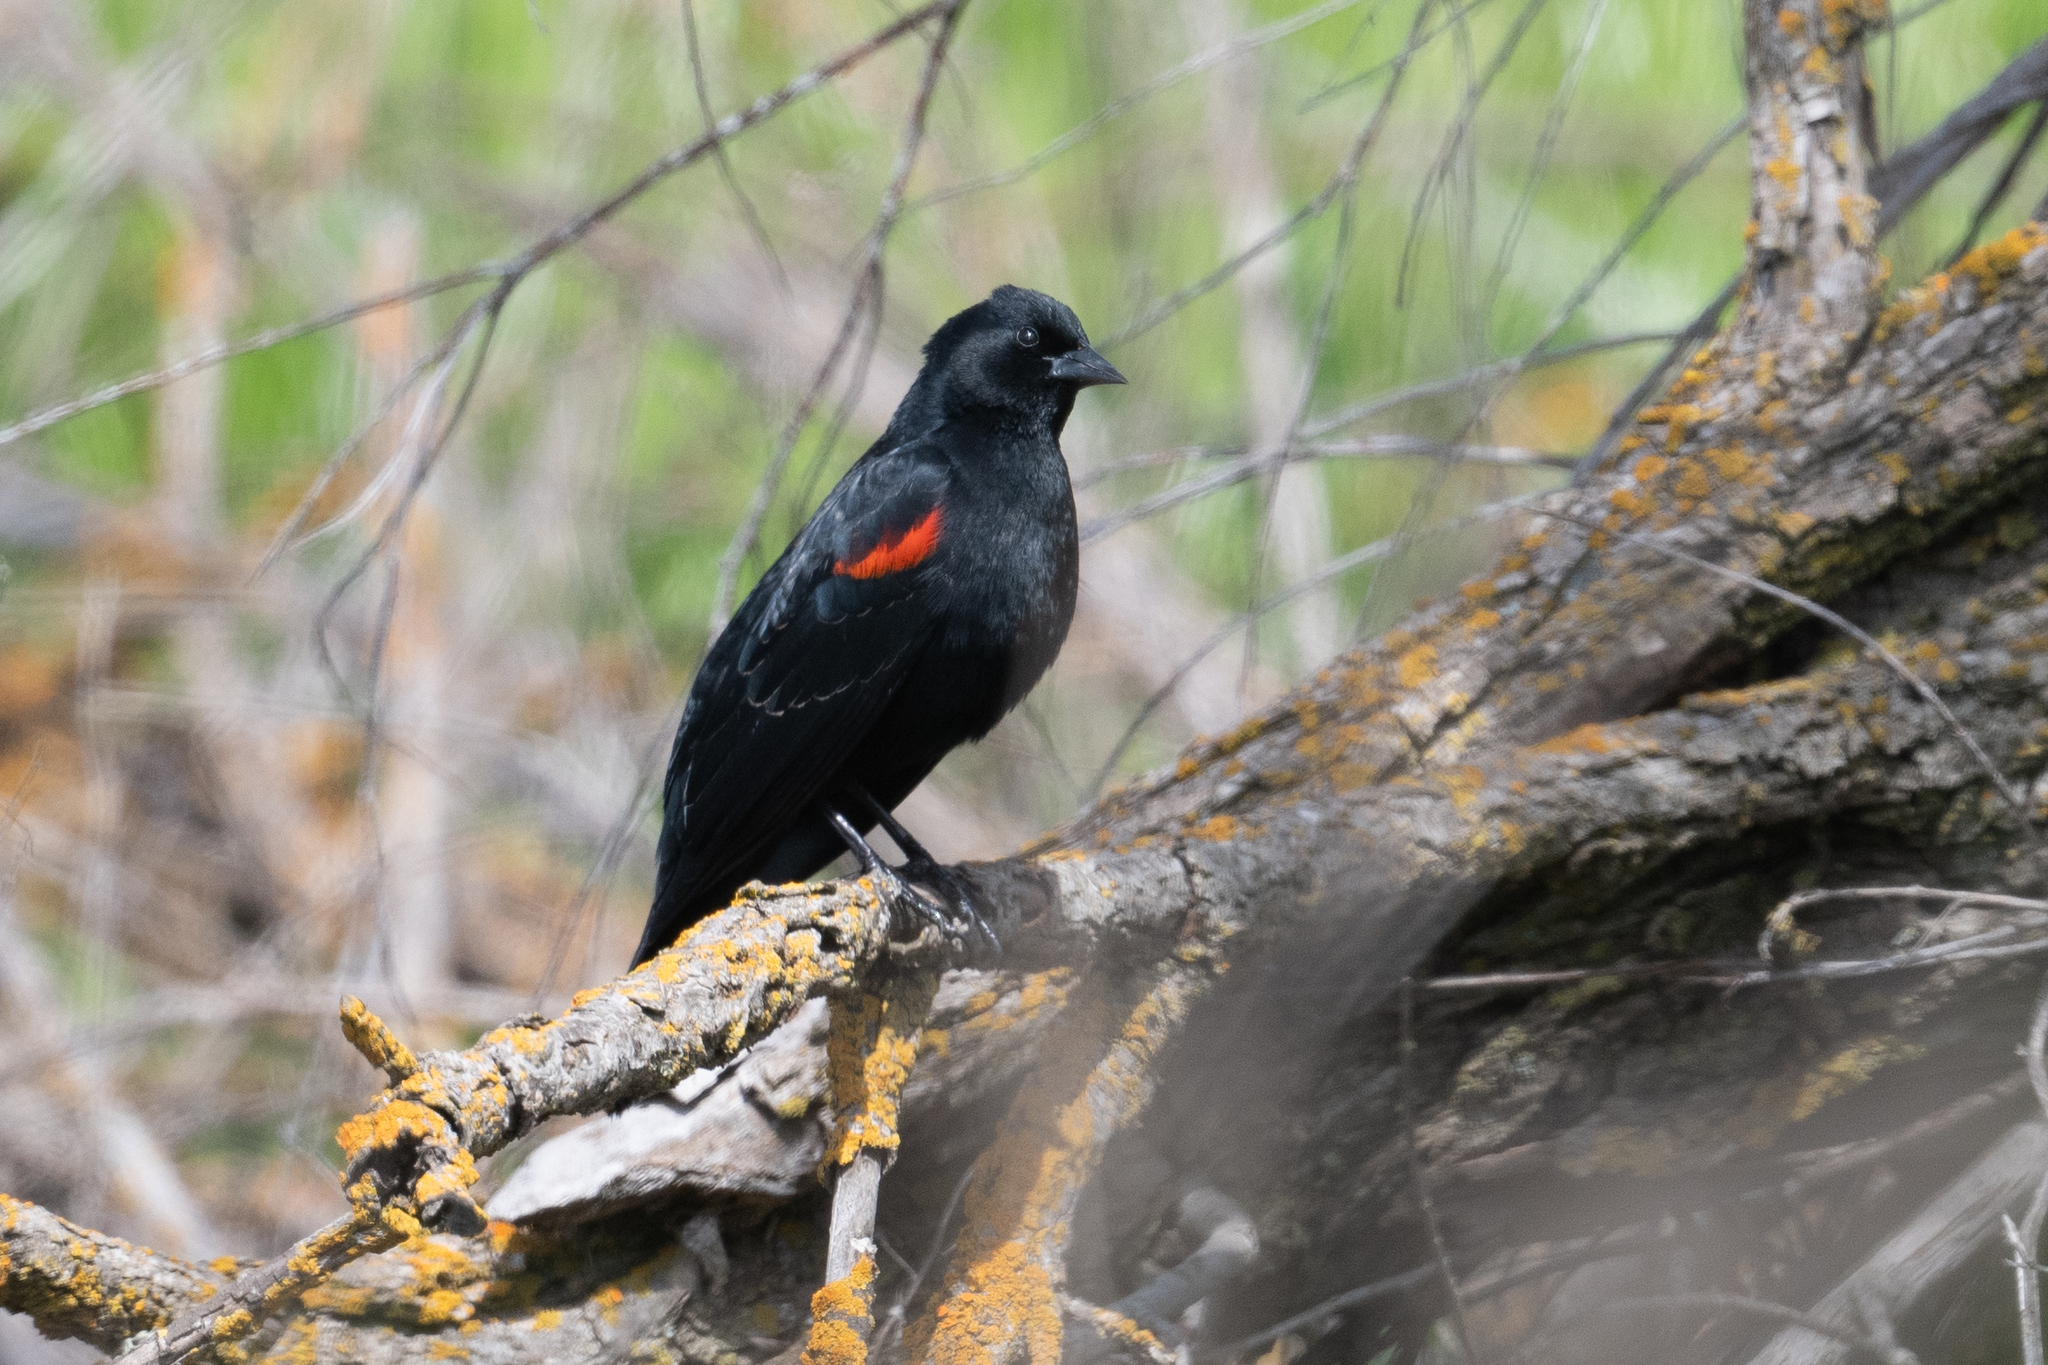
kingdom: Animalia
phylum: Chordata
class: Aves
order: Passeriformes
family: Icteridae
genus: Agelaius
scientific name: Agelaius phoeniceus
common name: Red-winged blackbird
